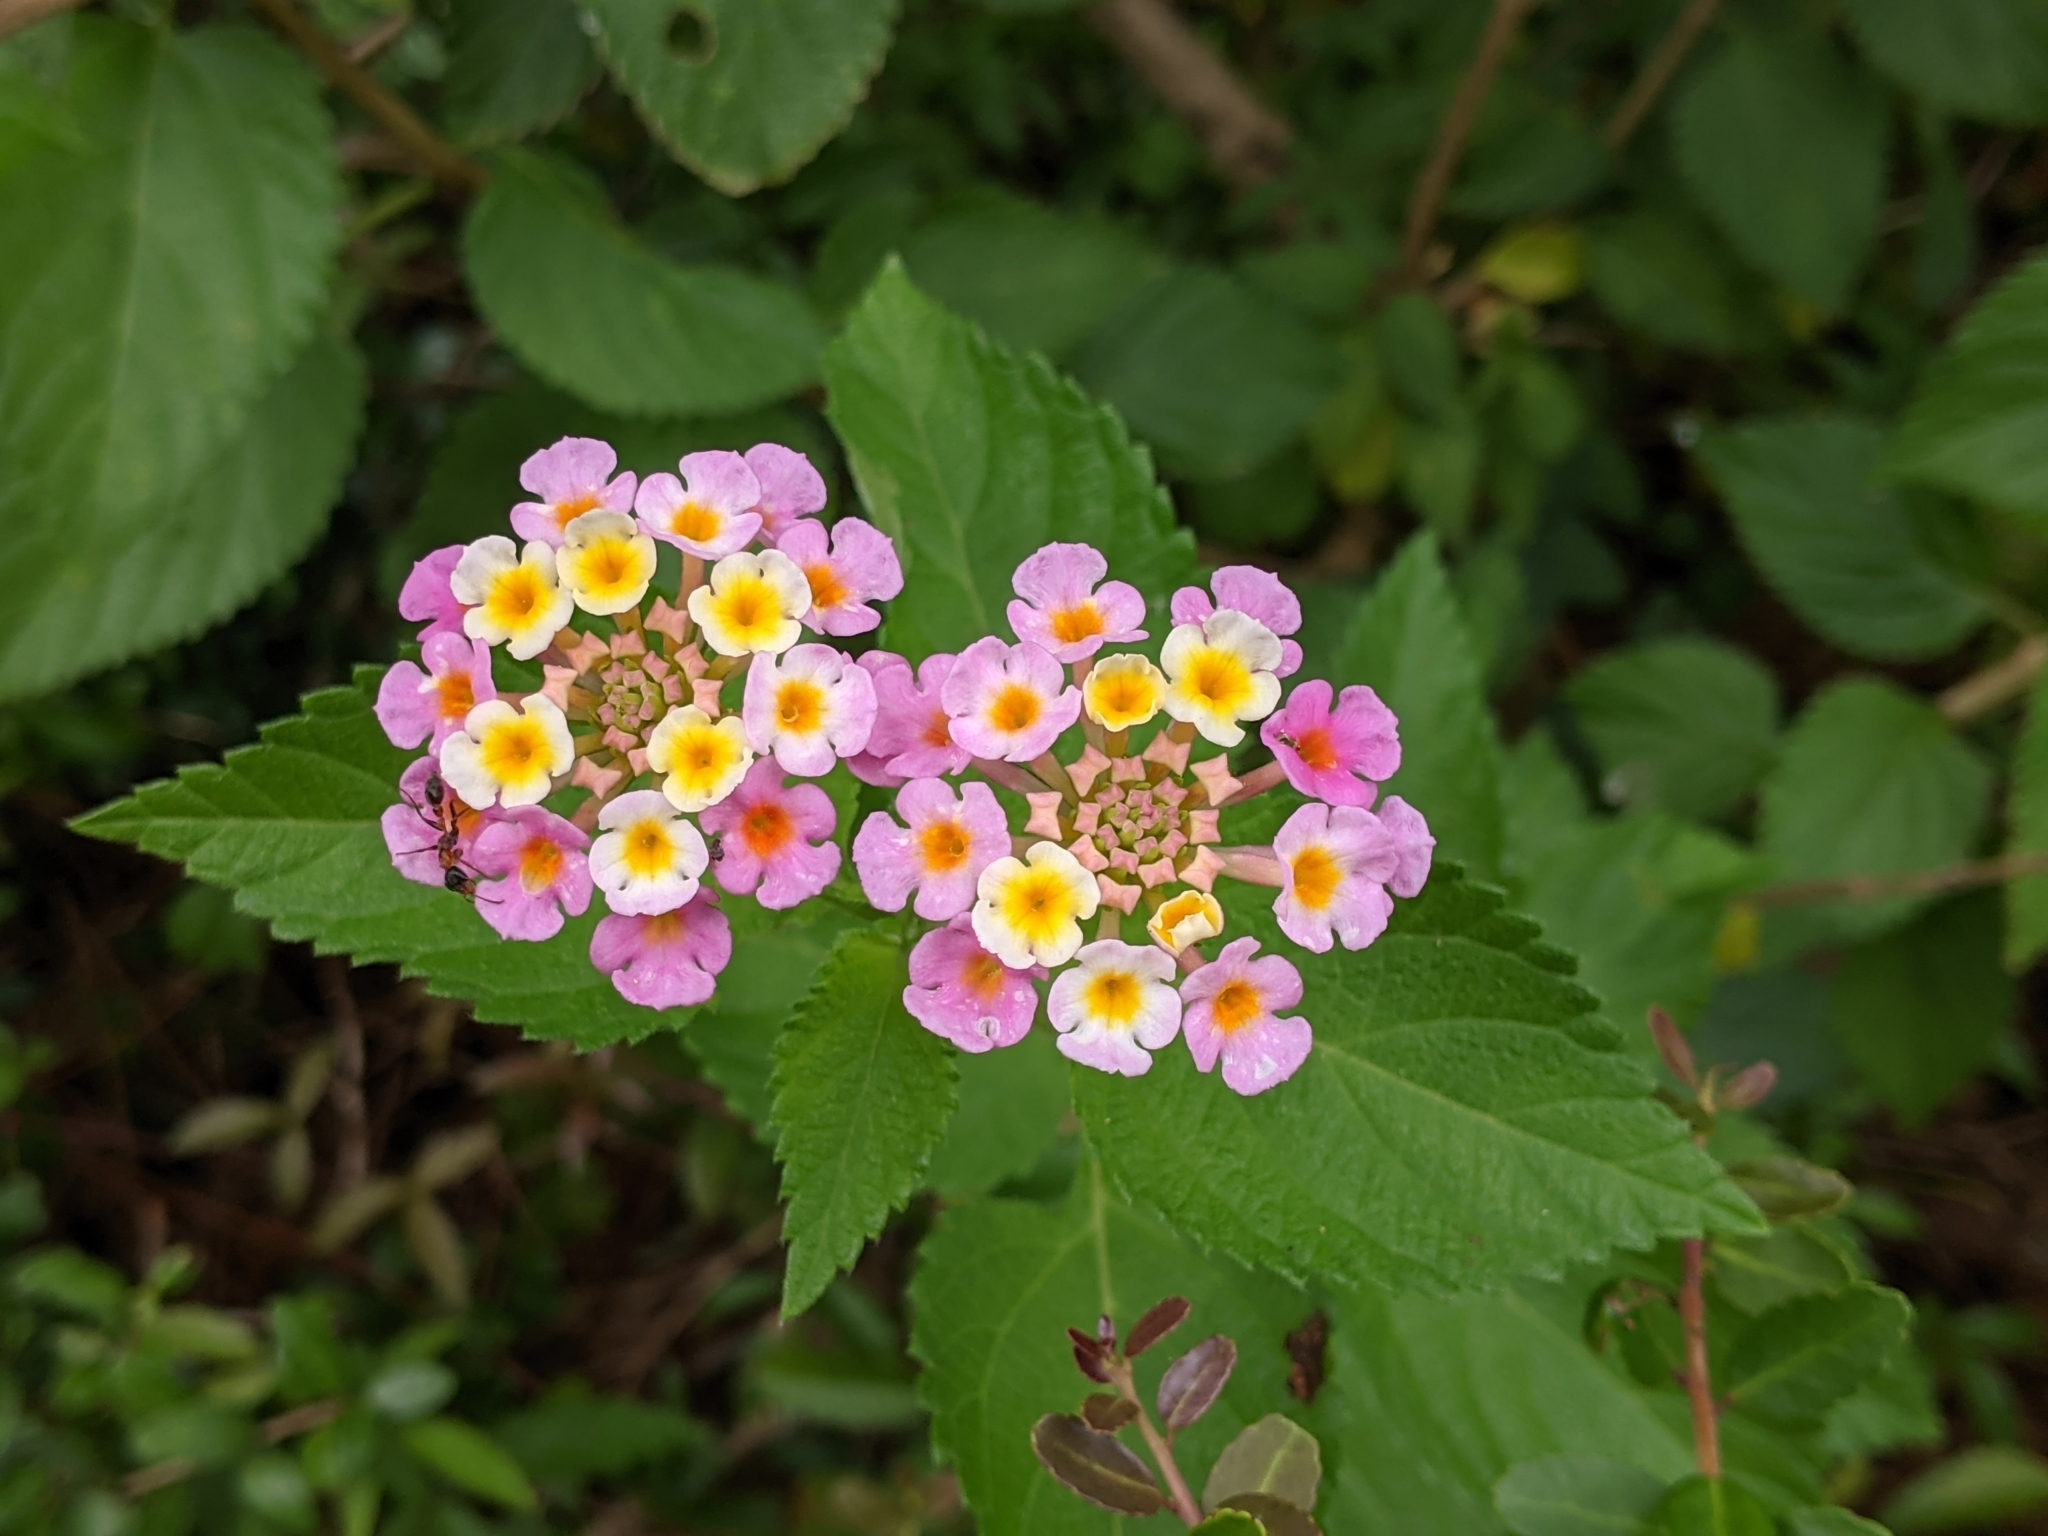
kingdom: Animalia
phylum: Arthropoda
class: Insecta
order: Hymenoptera
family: Formicidae
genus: Pseudomyrmex
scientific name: Pseudomyrmex gracilis
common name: Graceful twig ant
